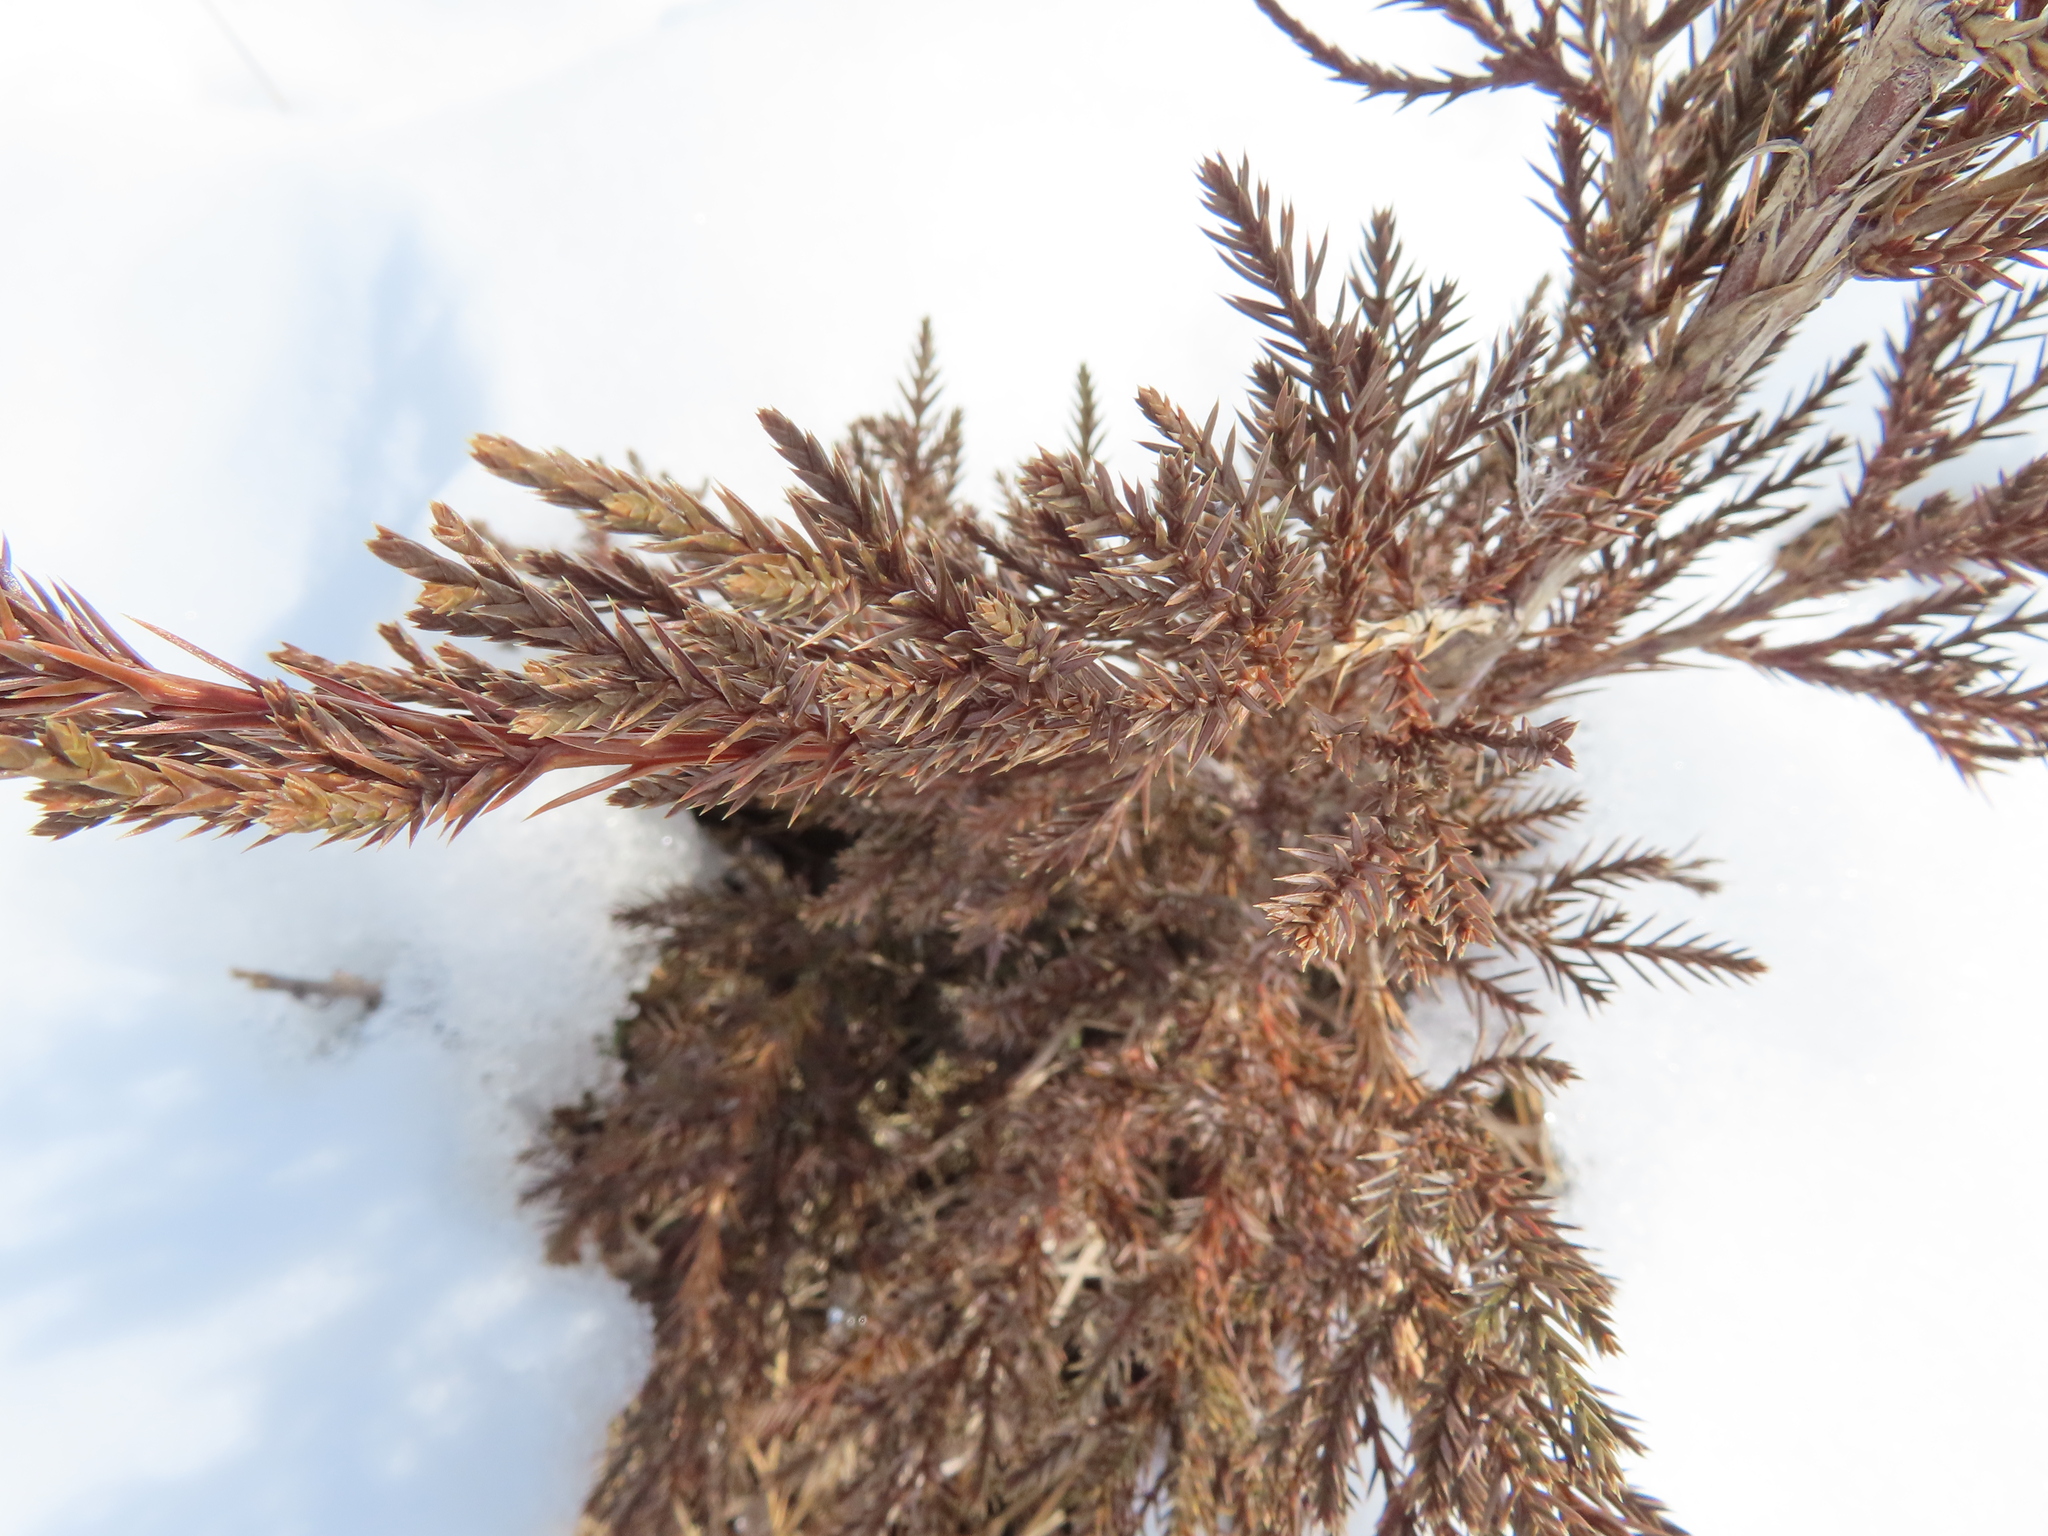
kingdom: Plantae
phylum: Tracheophyta
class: Pinopsida
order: Pinales
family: Cupressaceae
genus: Juniperus
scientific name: Juniperus virginiana
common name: Red juniper
